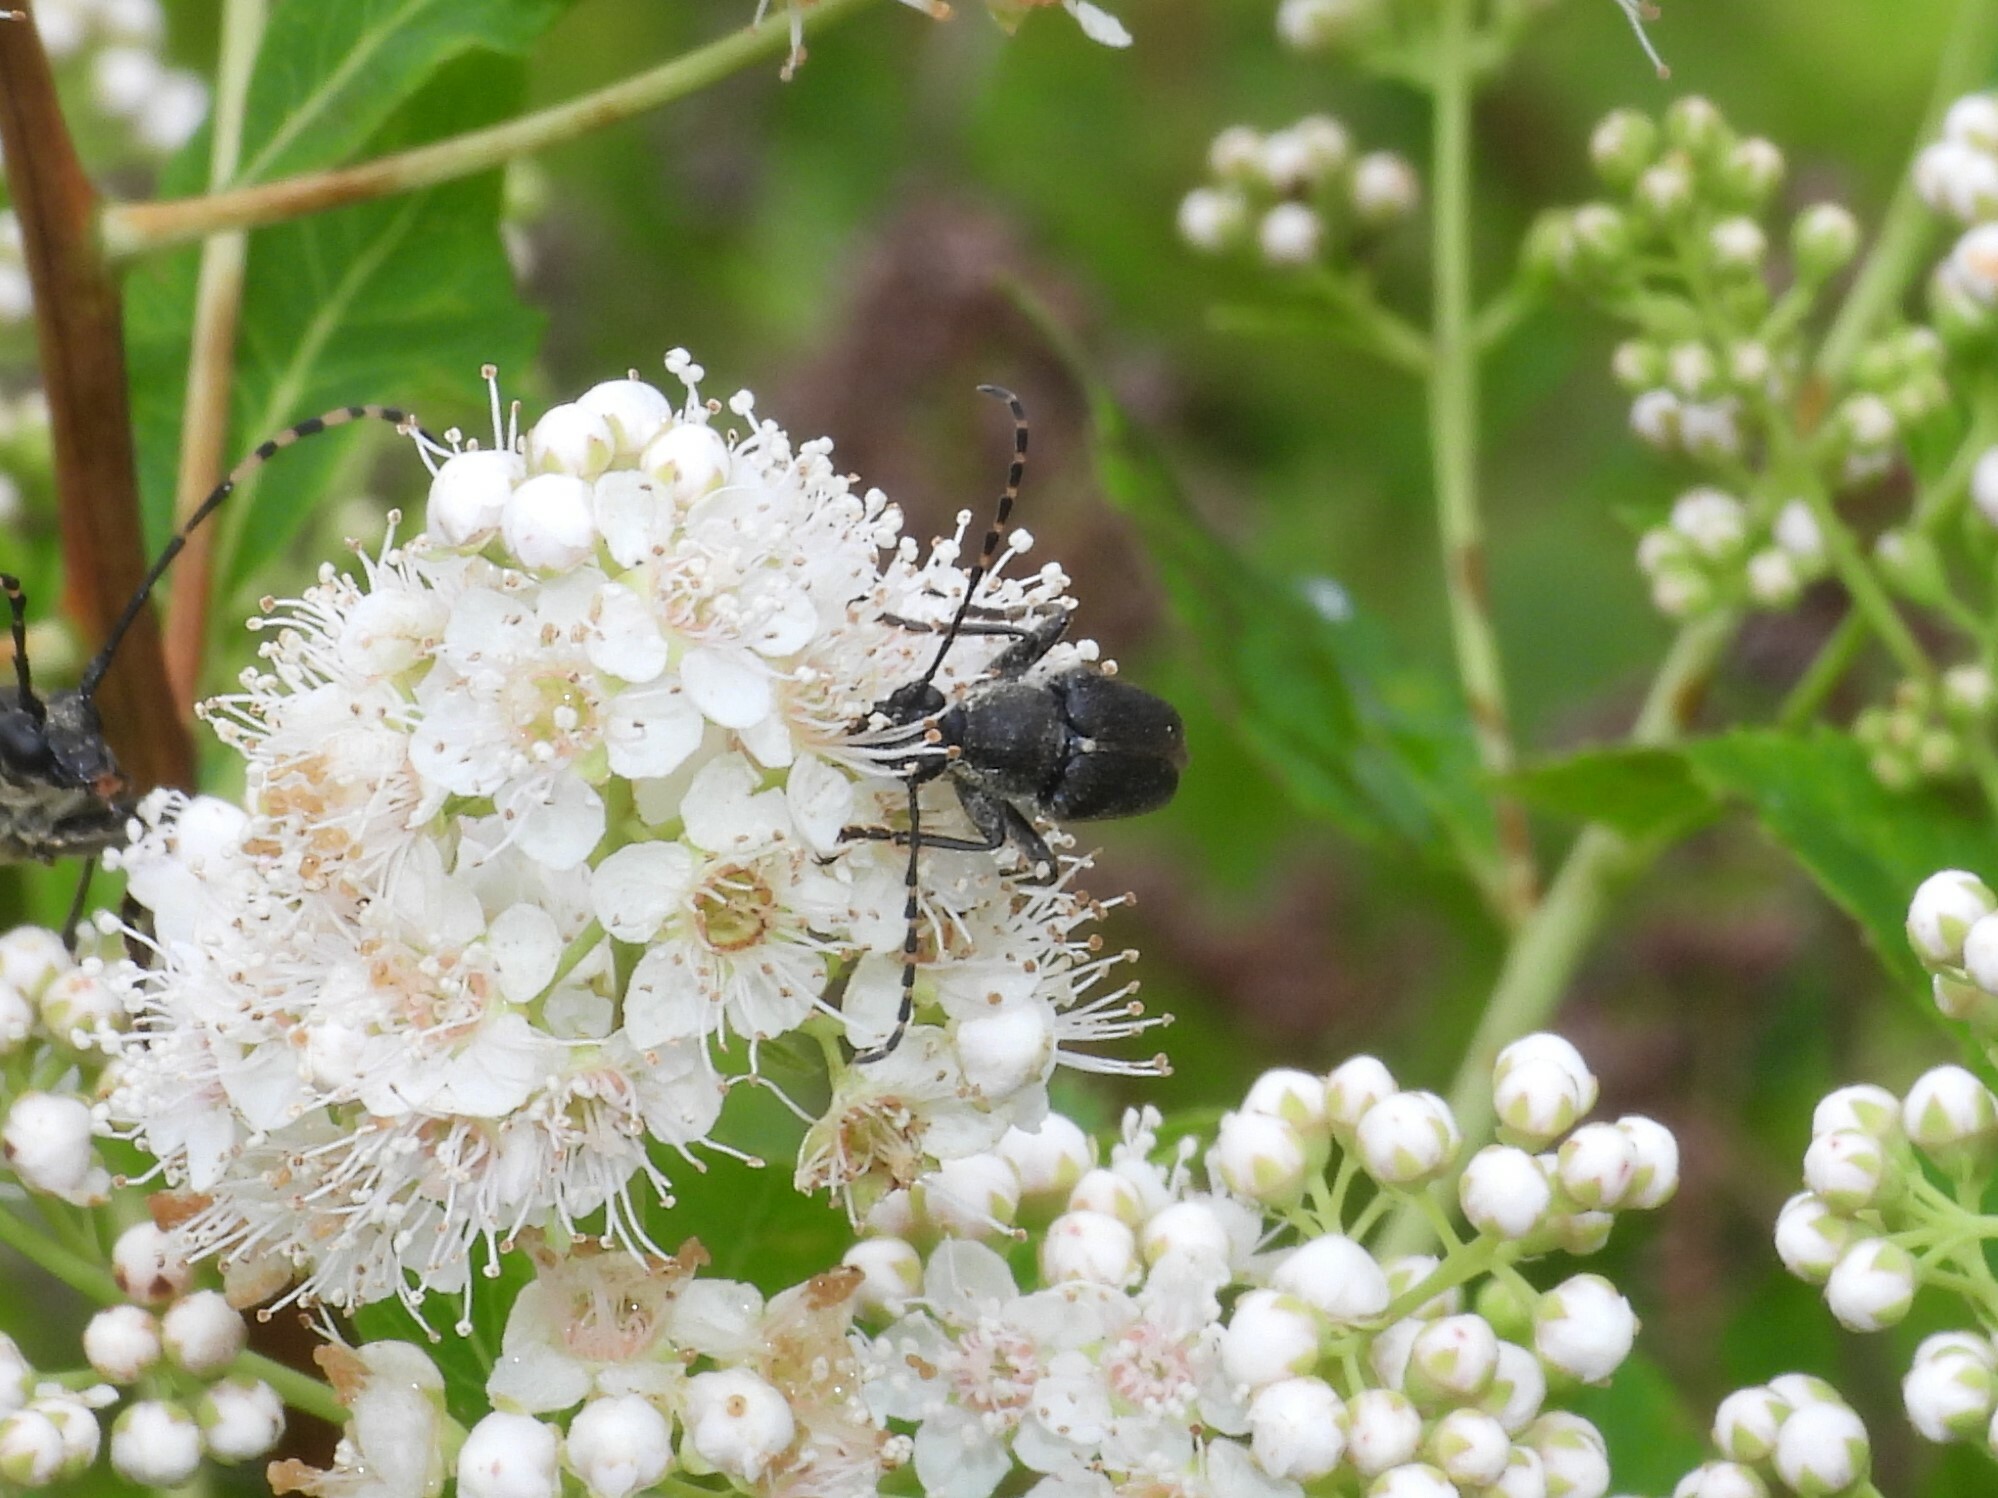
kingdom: Animalia
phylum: Arthropoda
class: Insecta
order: Coleoptera
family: Cerambycidae
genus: Brachyleptura
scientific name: Brachyleptura vagans
